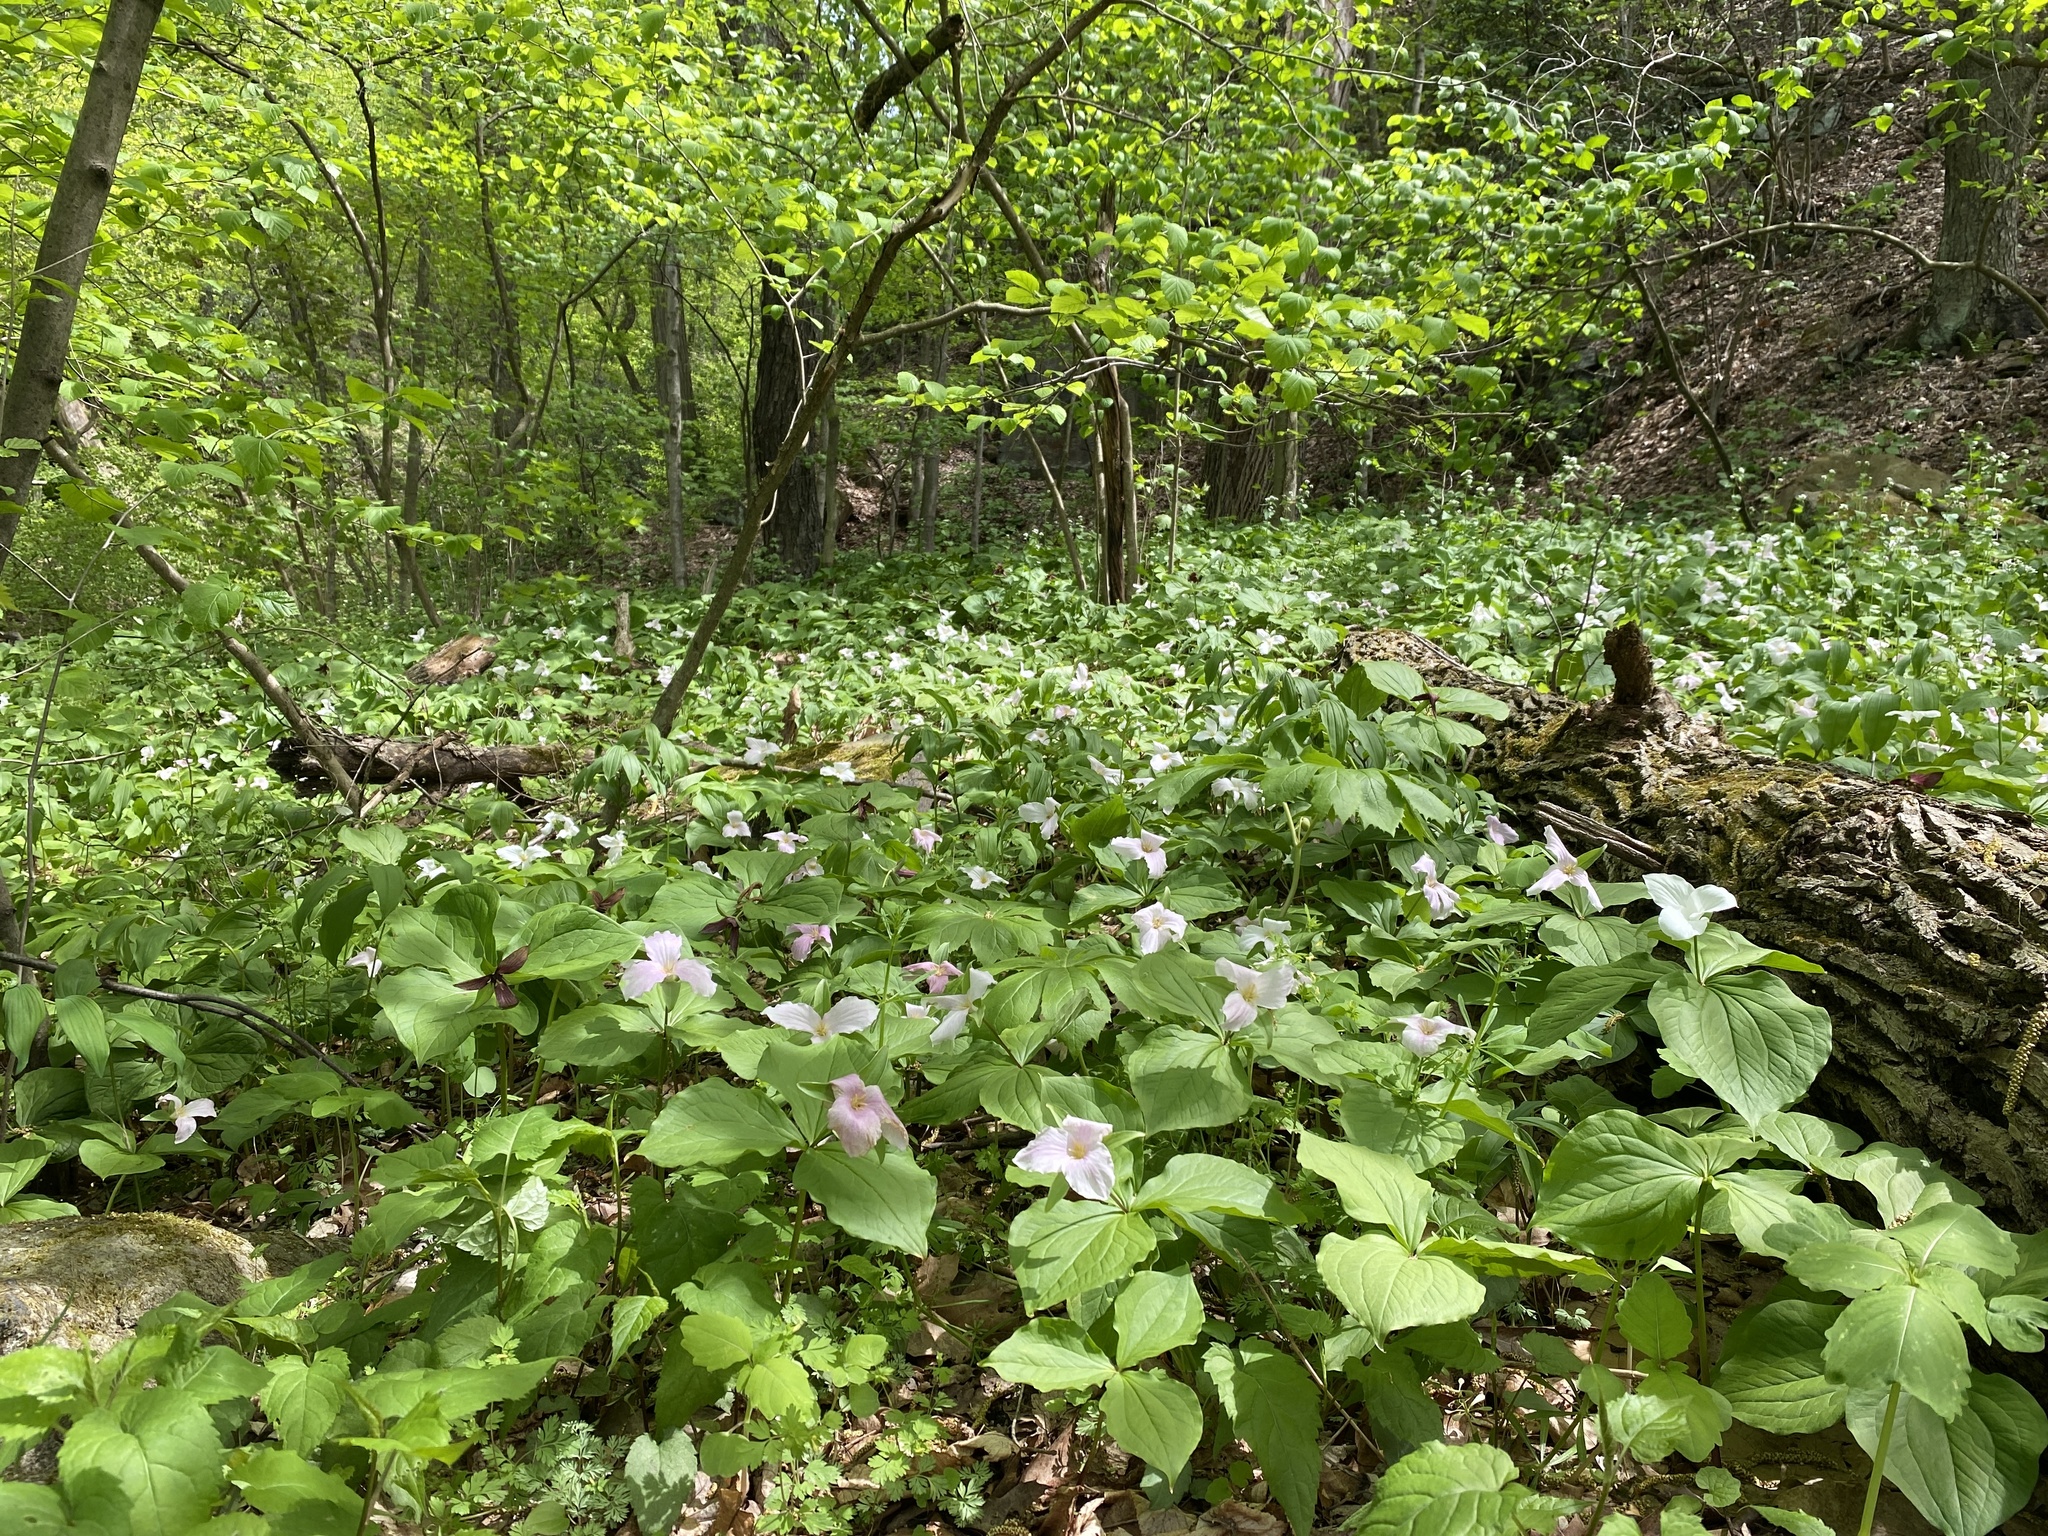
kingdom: Plantae
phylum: Tracheophyta
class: Liliopsida
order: Liliales
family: Melanthiaceae
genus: Trillium
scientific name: Trillium grandiflorum
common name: Great white trillium
